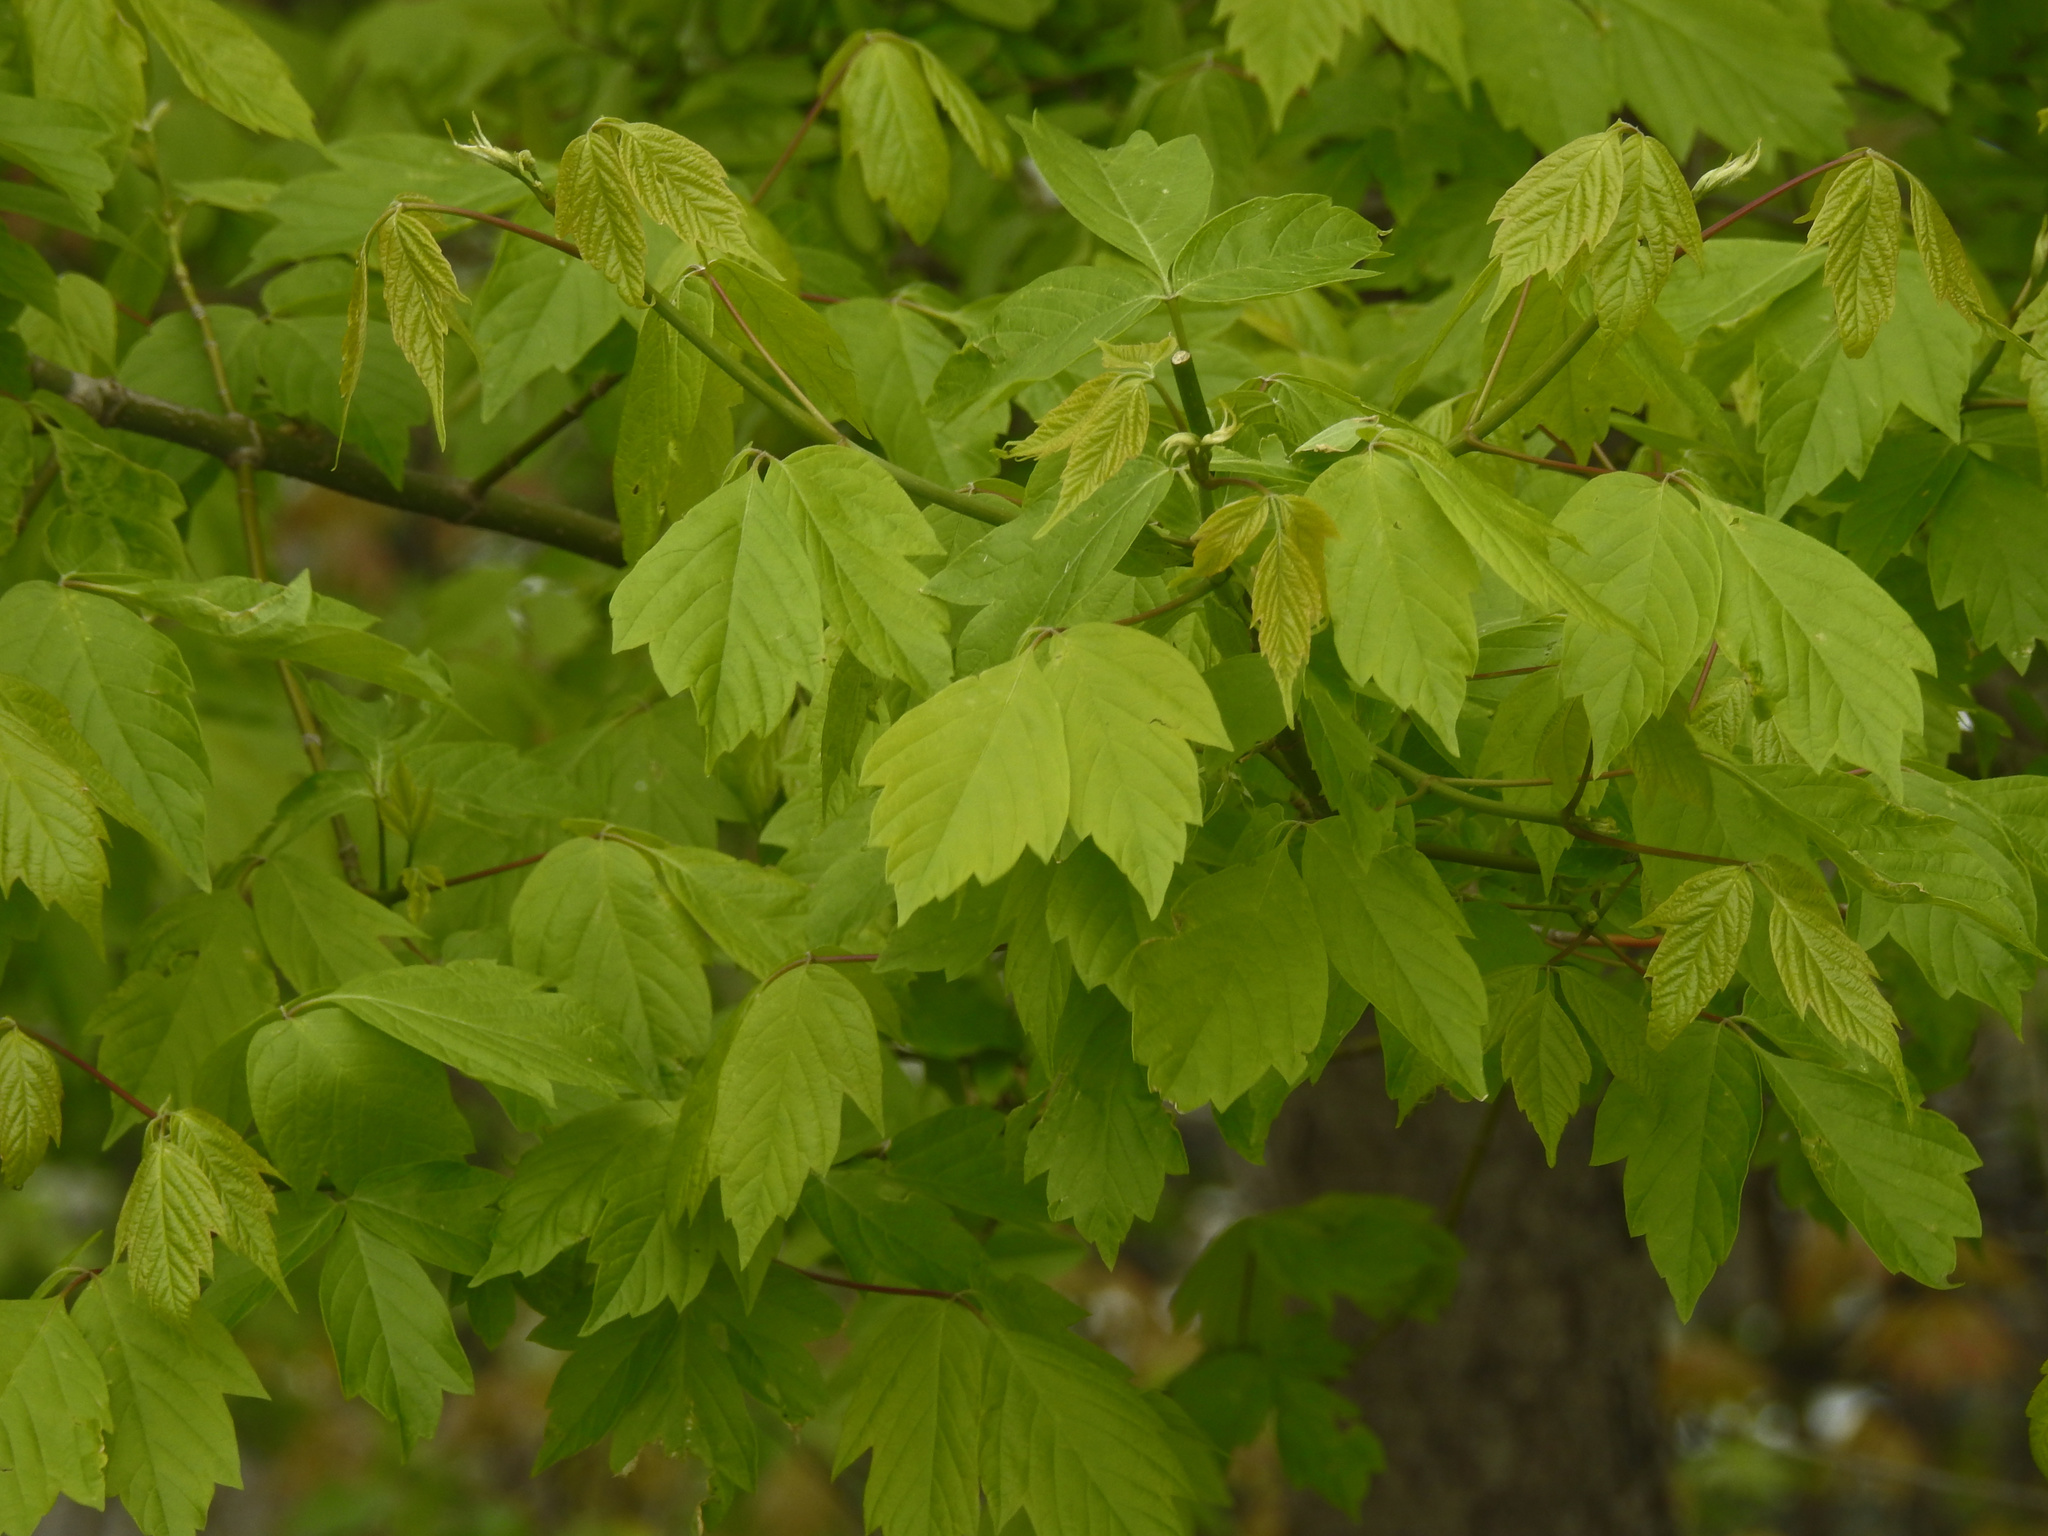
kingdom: Plantae
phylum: Tracheophyta
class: Magnoliopsida
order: Sapindales
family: Sapindaceae
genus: Acer
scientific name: Acer negundo
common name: Ashleaf maple
